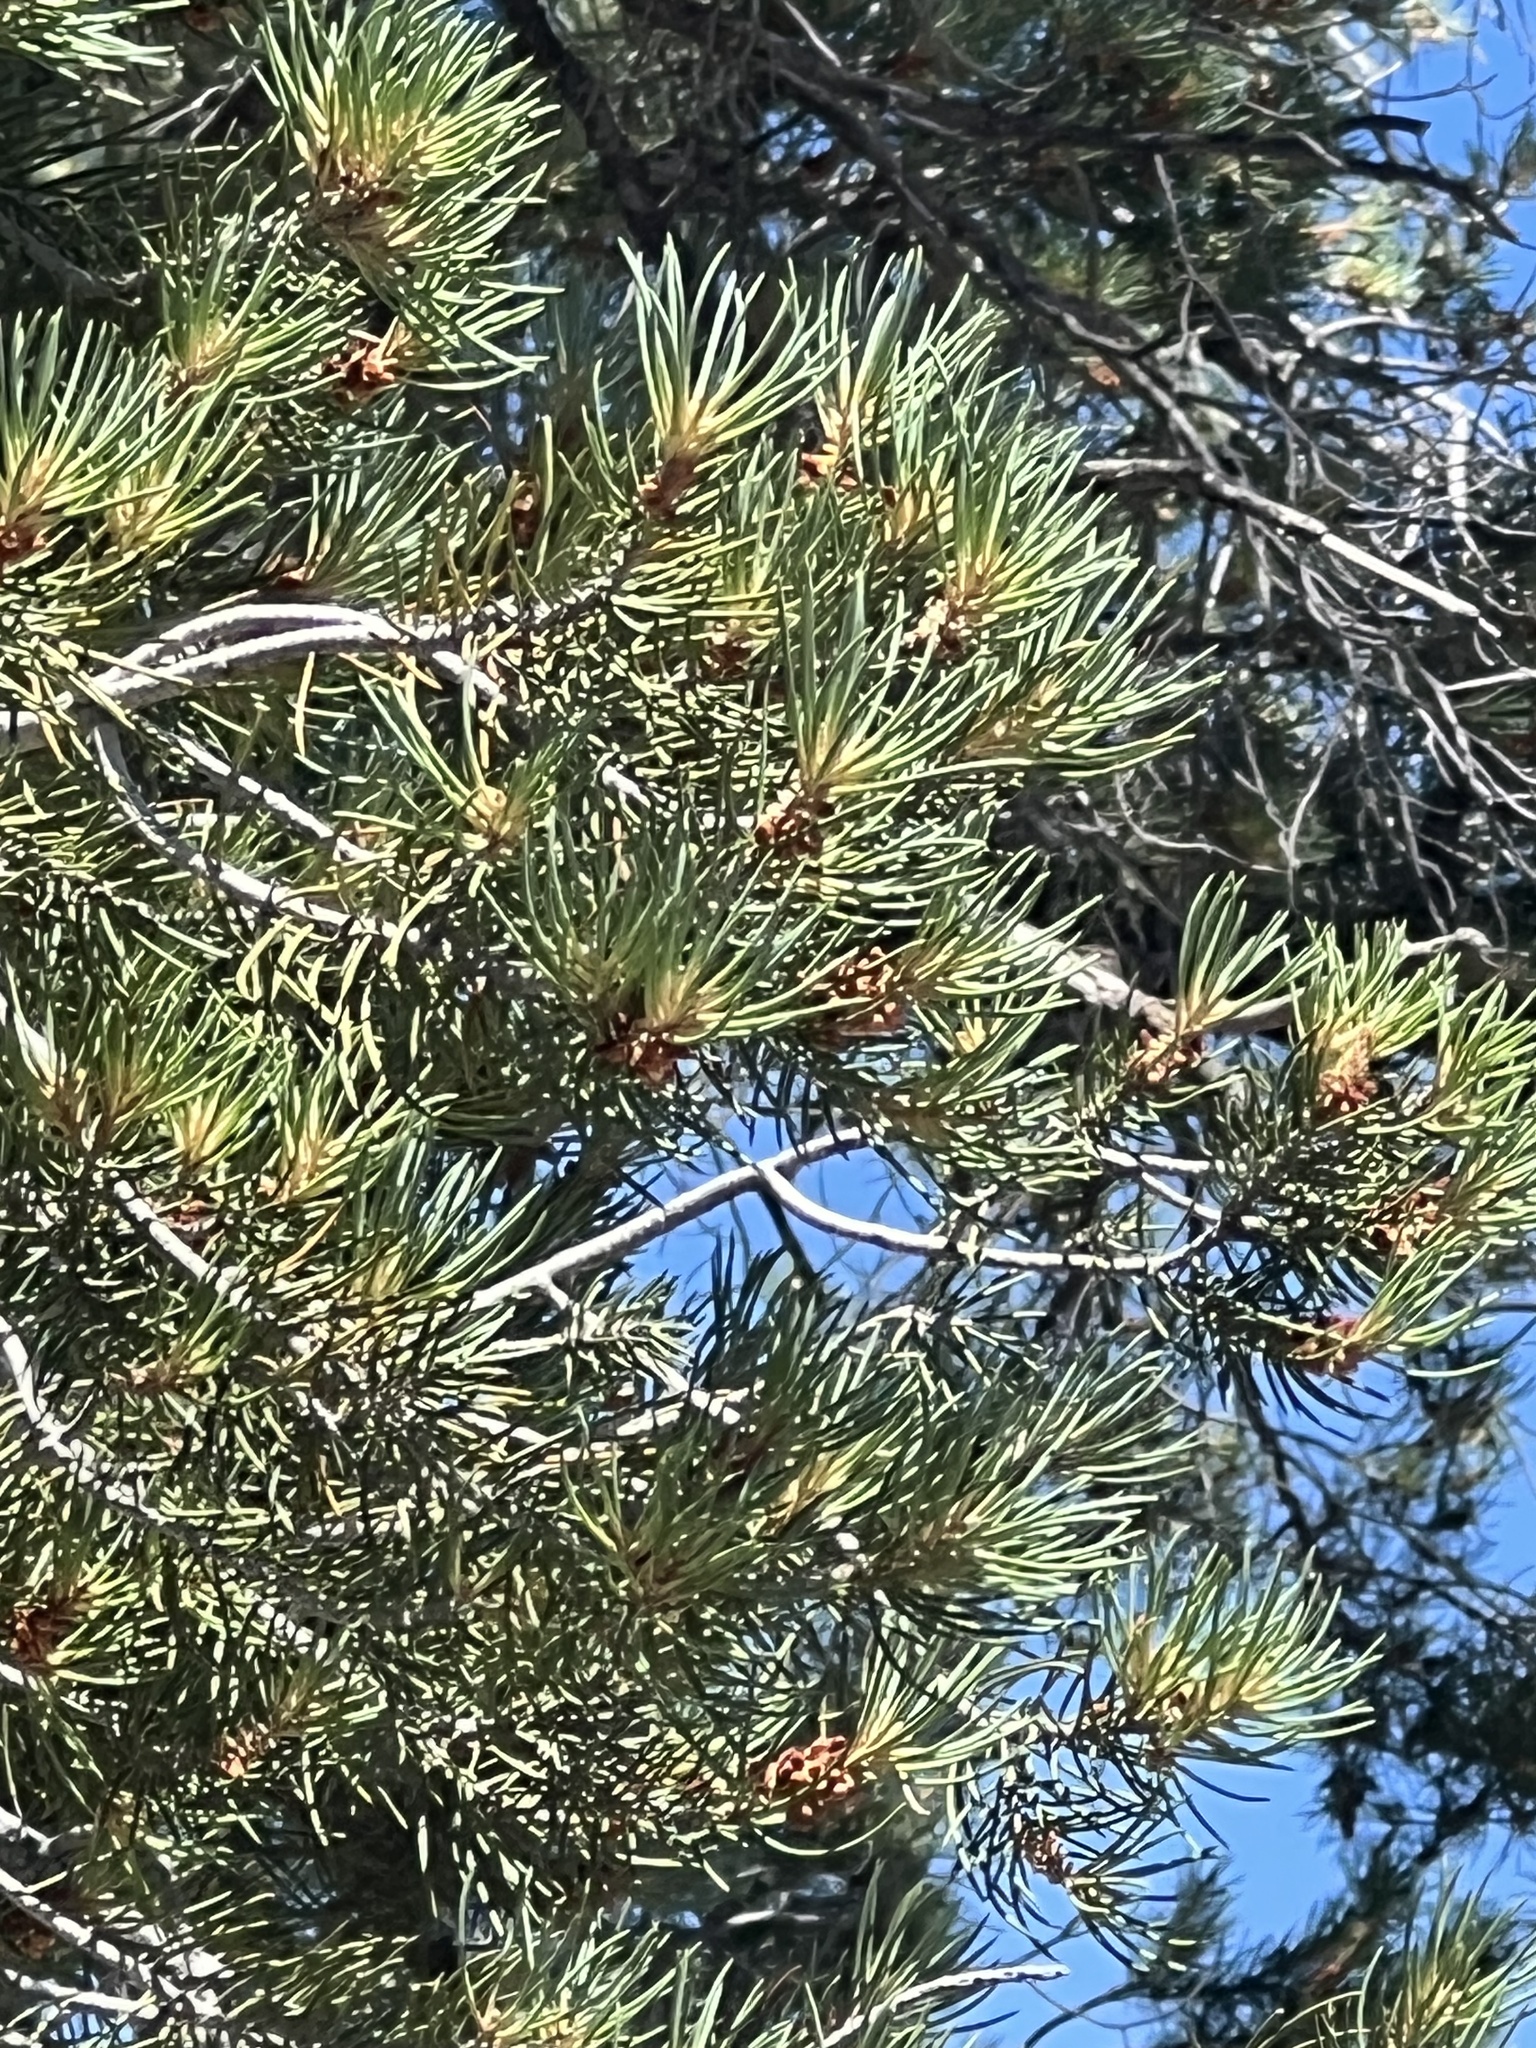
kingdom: Plantae
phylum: Tracheophyta
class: Pinopsida
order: Pinales
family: Pinaceae
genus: Pinus
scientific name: Pinus monophylla
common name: One-leaved nut pine
